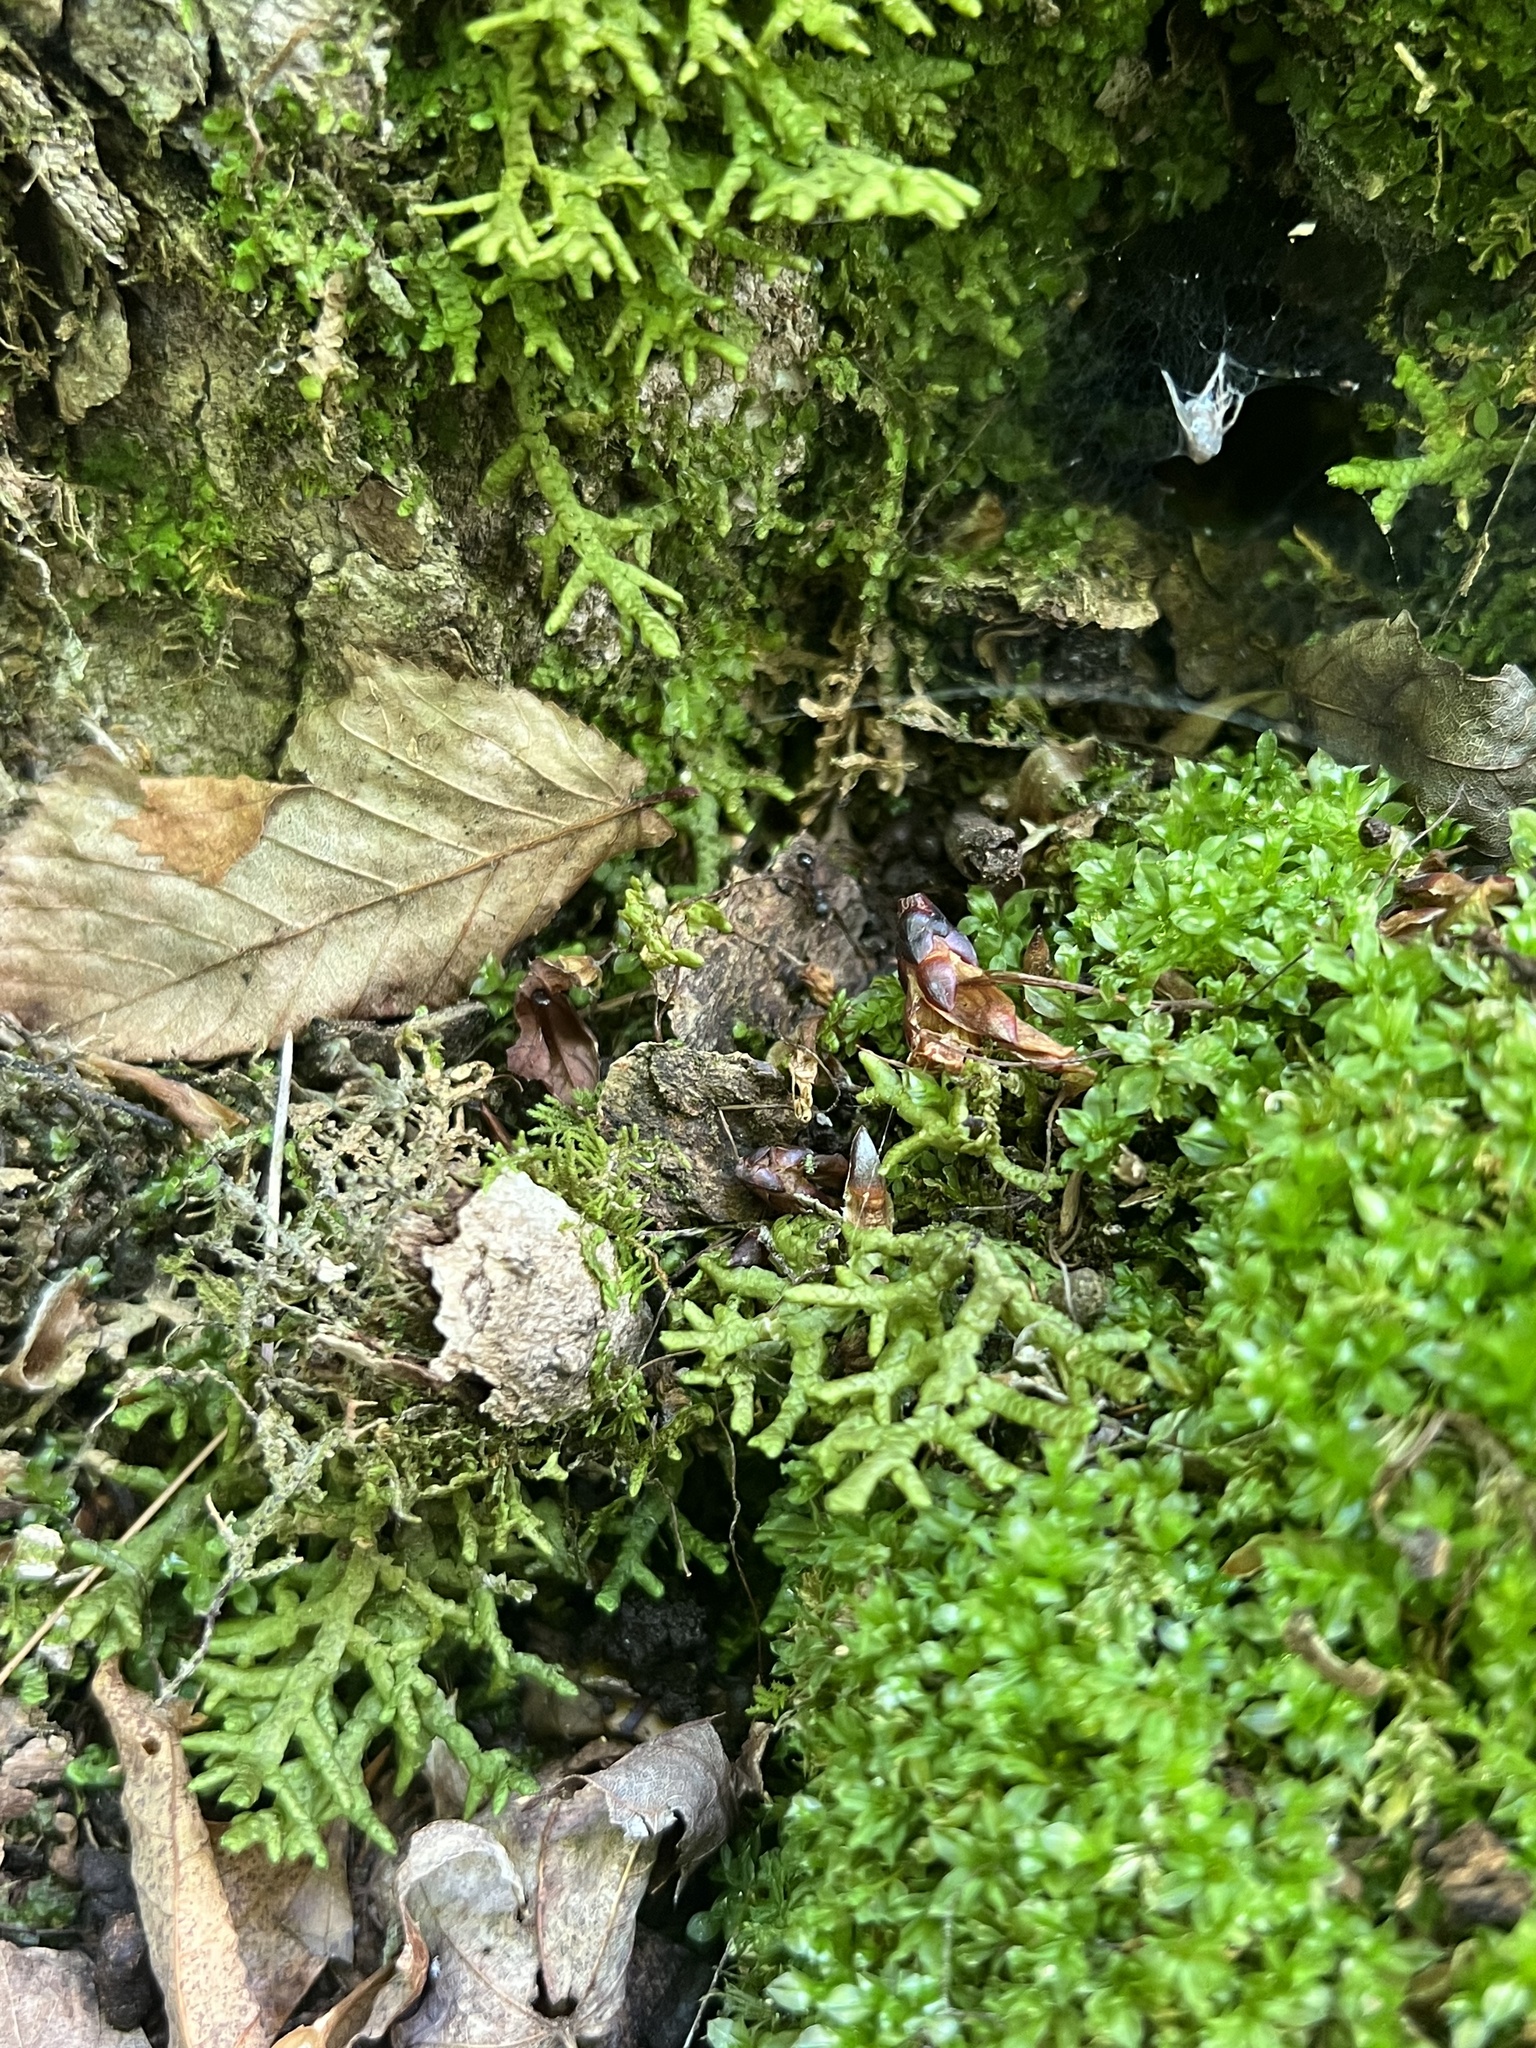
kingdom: Plantae
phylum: Marchantiophyta
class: Jungermanniopsida
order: Porellales
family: Porellaceae
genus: Porella
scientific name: Porella platyphylla
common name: Wall scalewort
